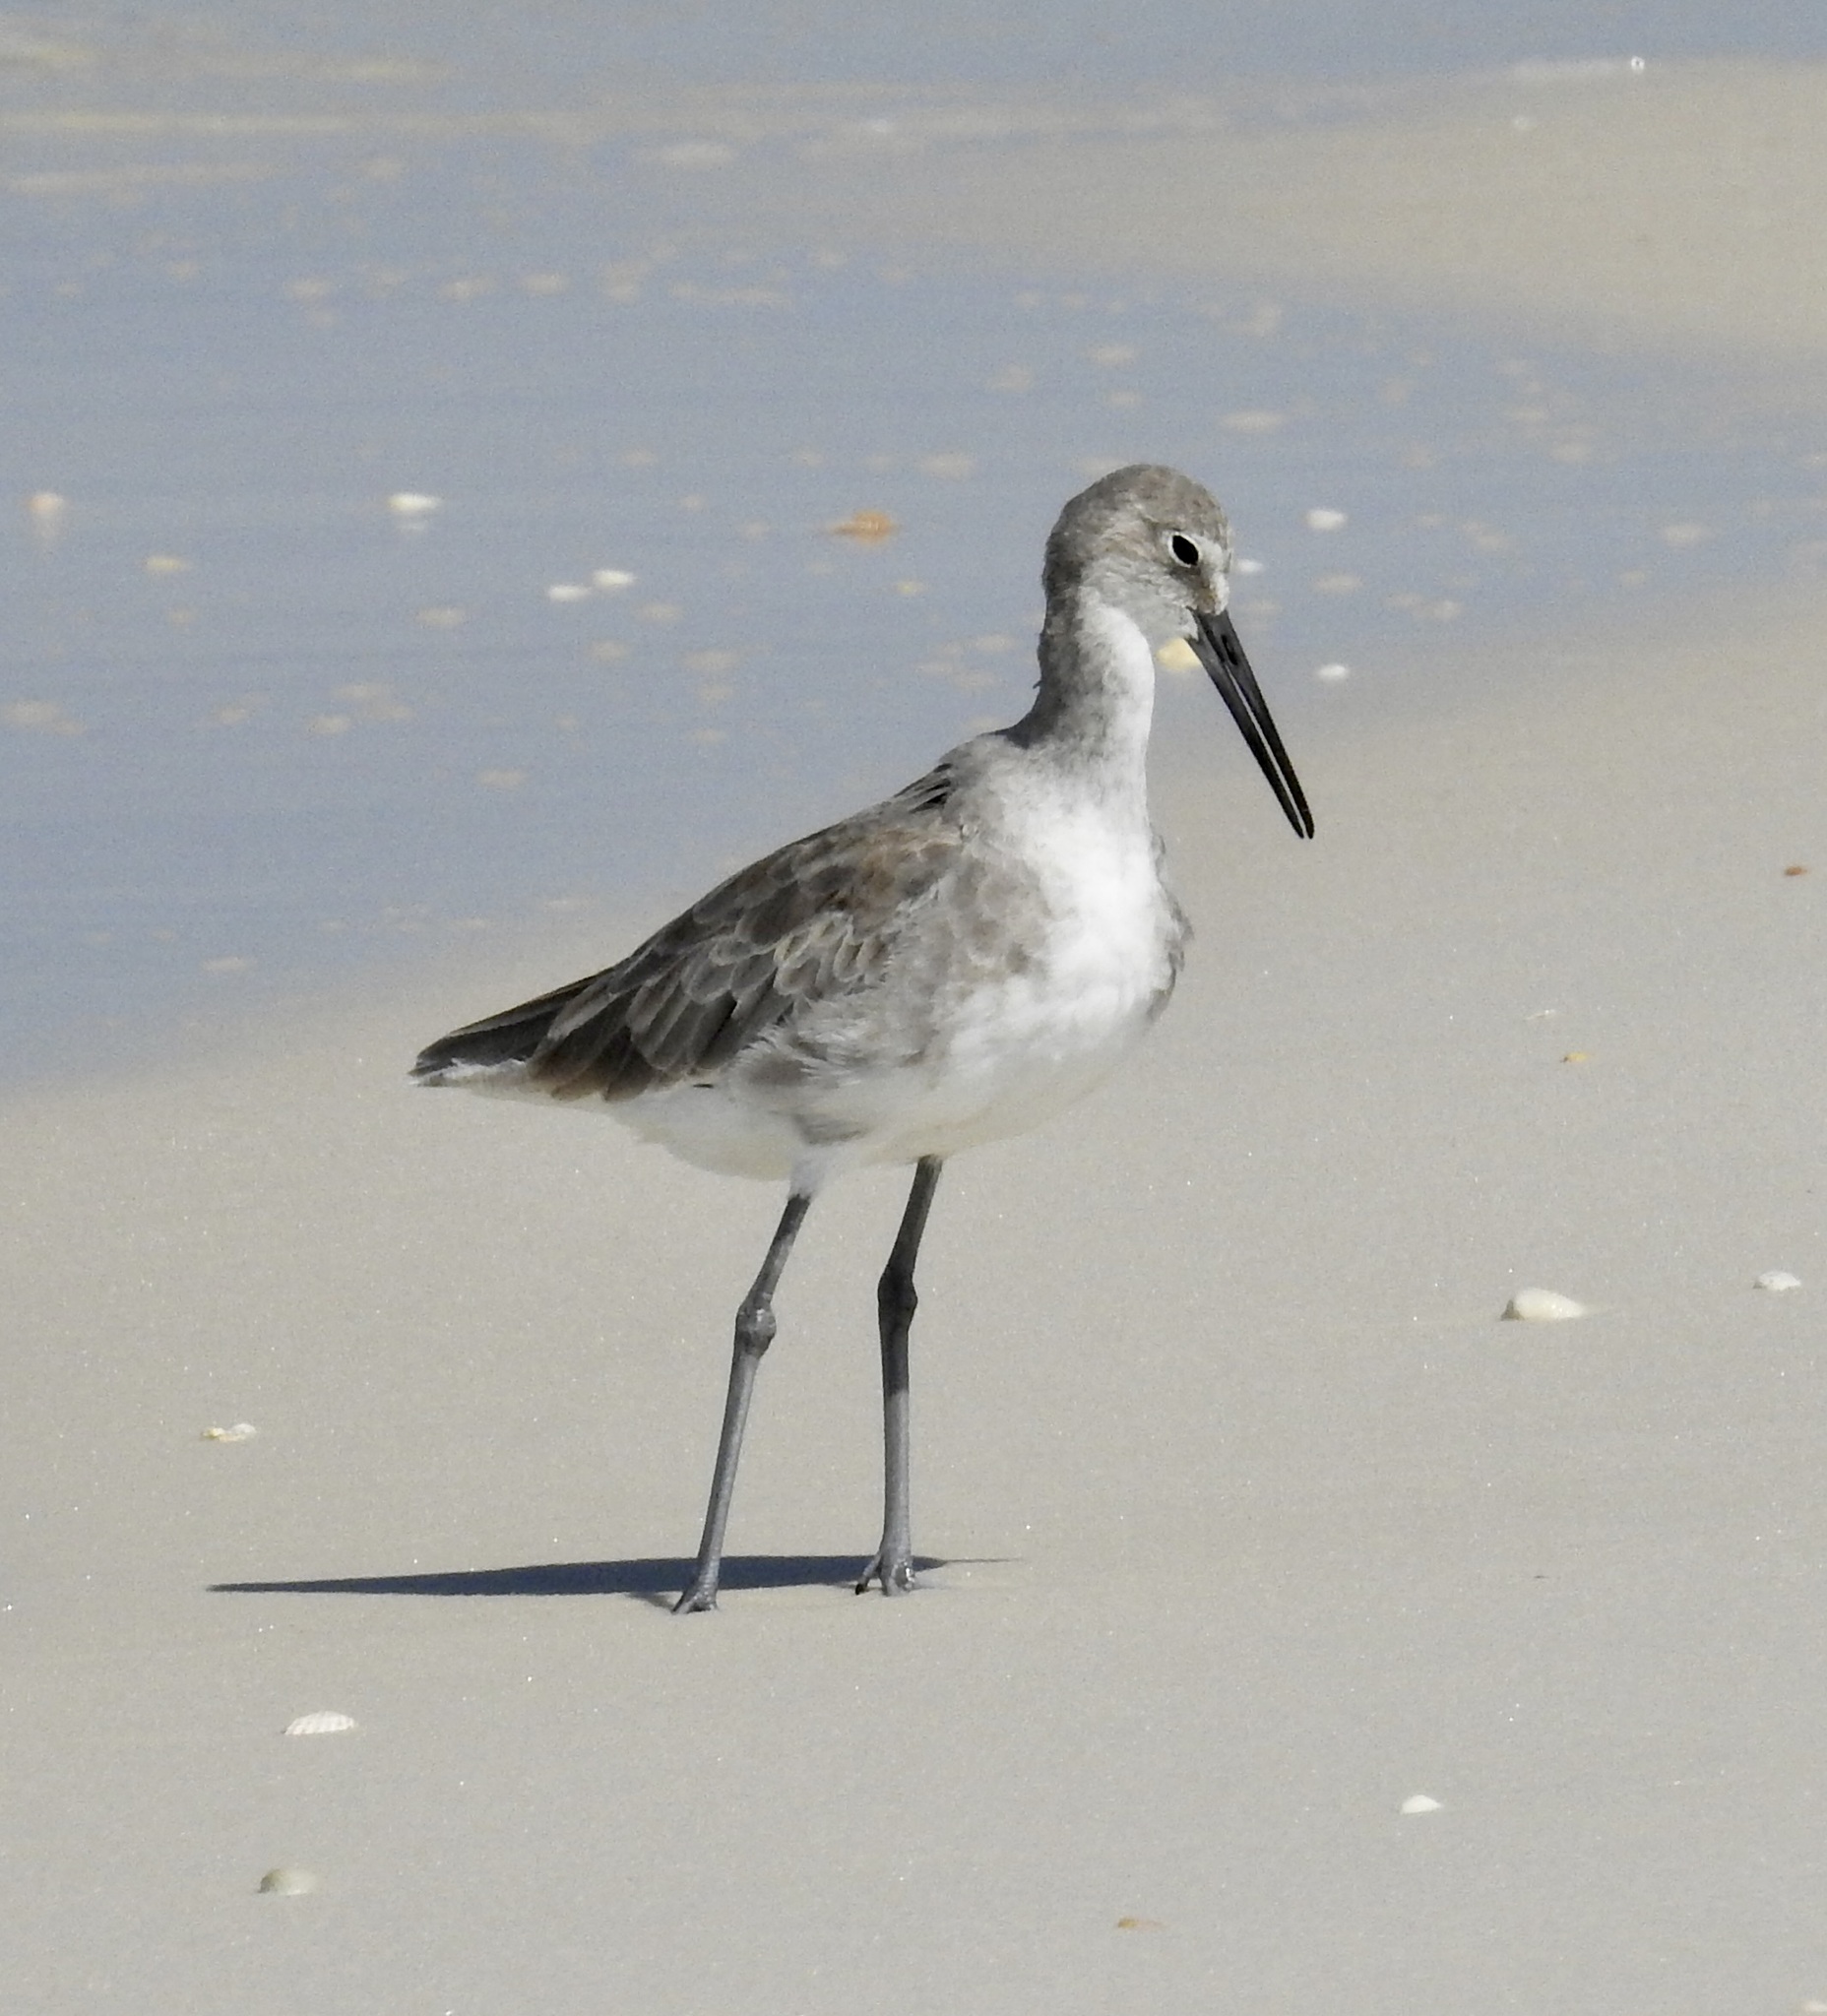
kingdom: Animalia
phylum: Chordata
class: Aves
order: Charadriiformes
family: Scolopacidae
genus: Tringa
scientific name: Tringa semipalmata
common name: Willet
